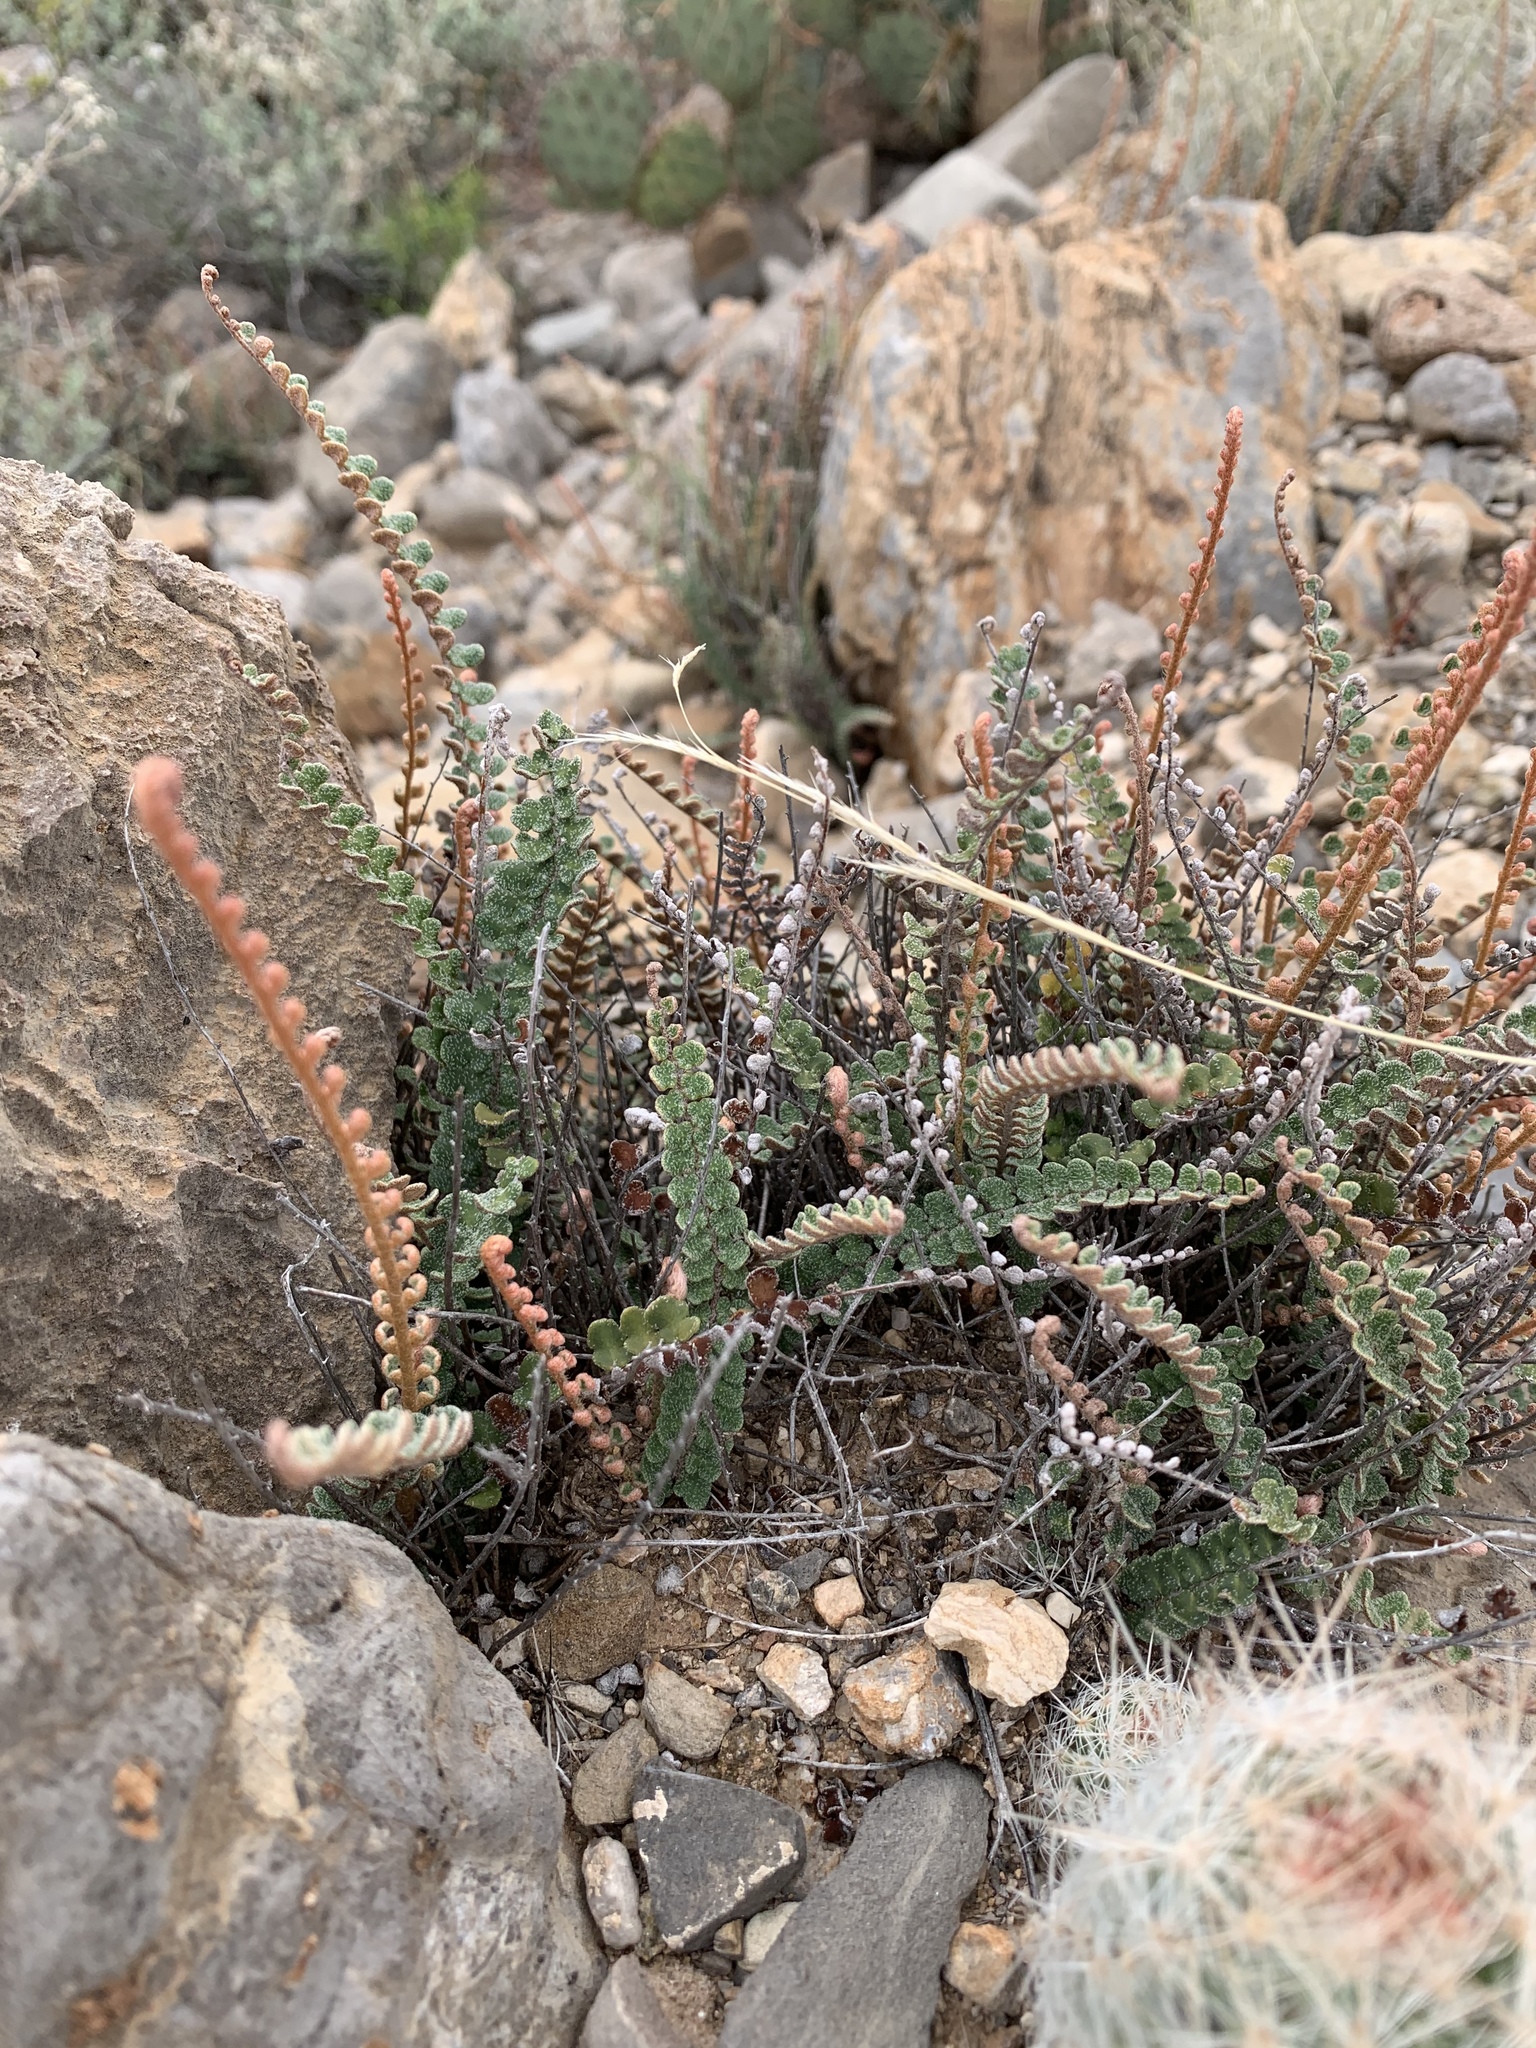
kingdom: Plantae
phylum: Tracheophyta
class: Polypodiopsida
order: Polypodiales
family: Pteridaceae
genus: Astrolepis
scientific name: Astrolepis cochisensis
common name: Scaly cloak fern
